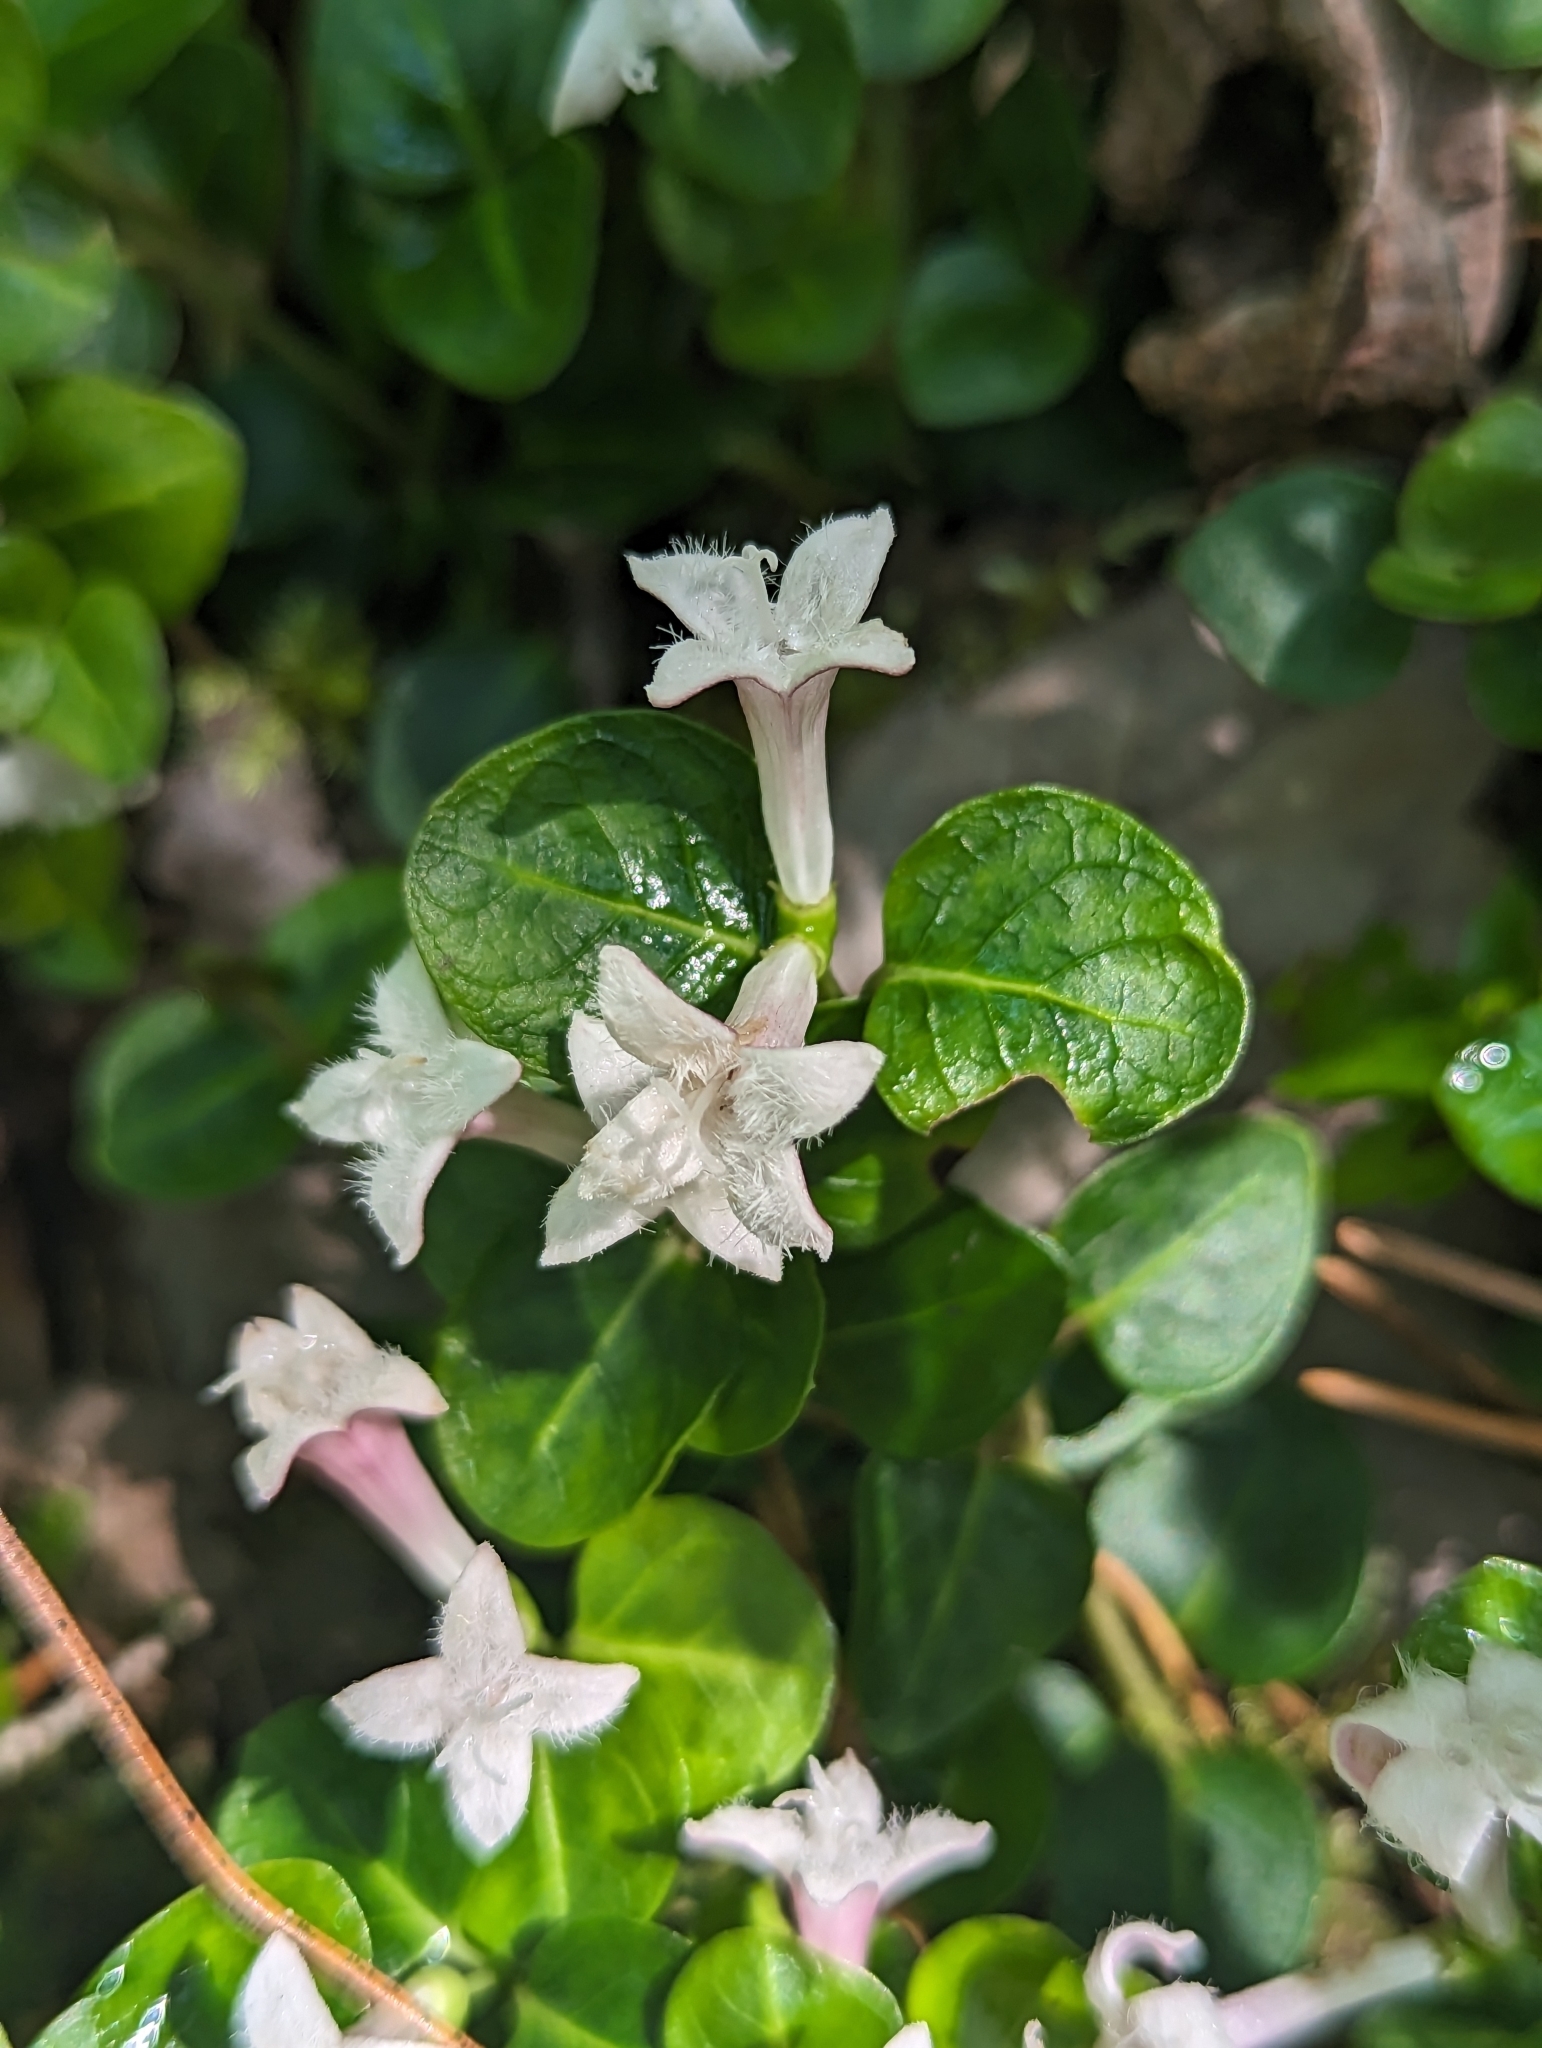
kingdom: Plantae
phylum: Tracheophyta
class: Magnoliopsida
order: Gentianales
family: Rubiaceae
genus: Mitchella
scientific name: Mitchella repens
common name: Partridge-berry
